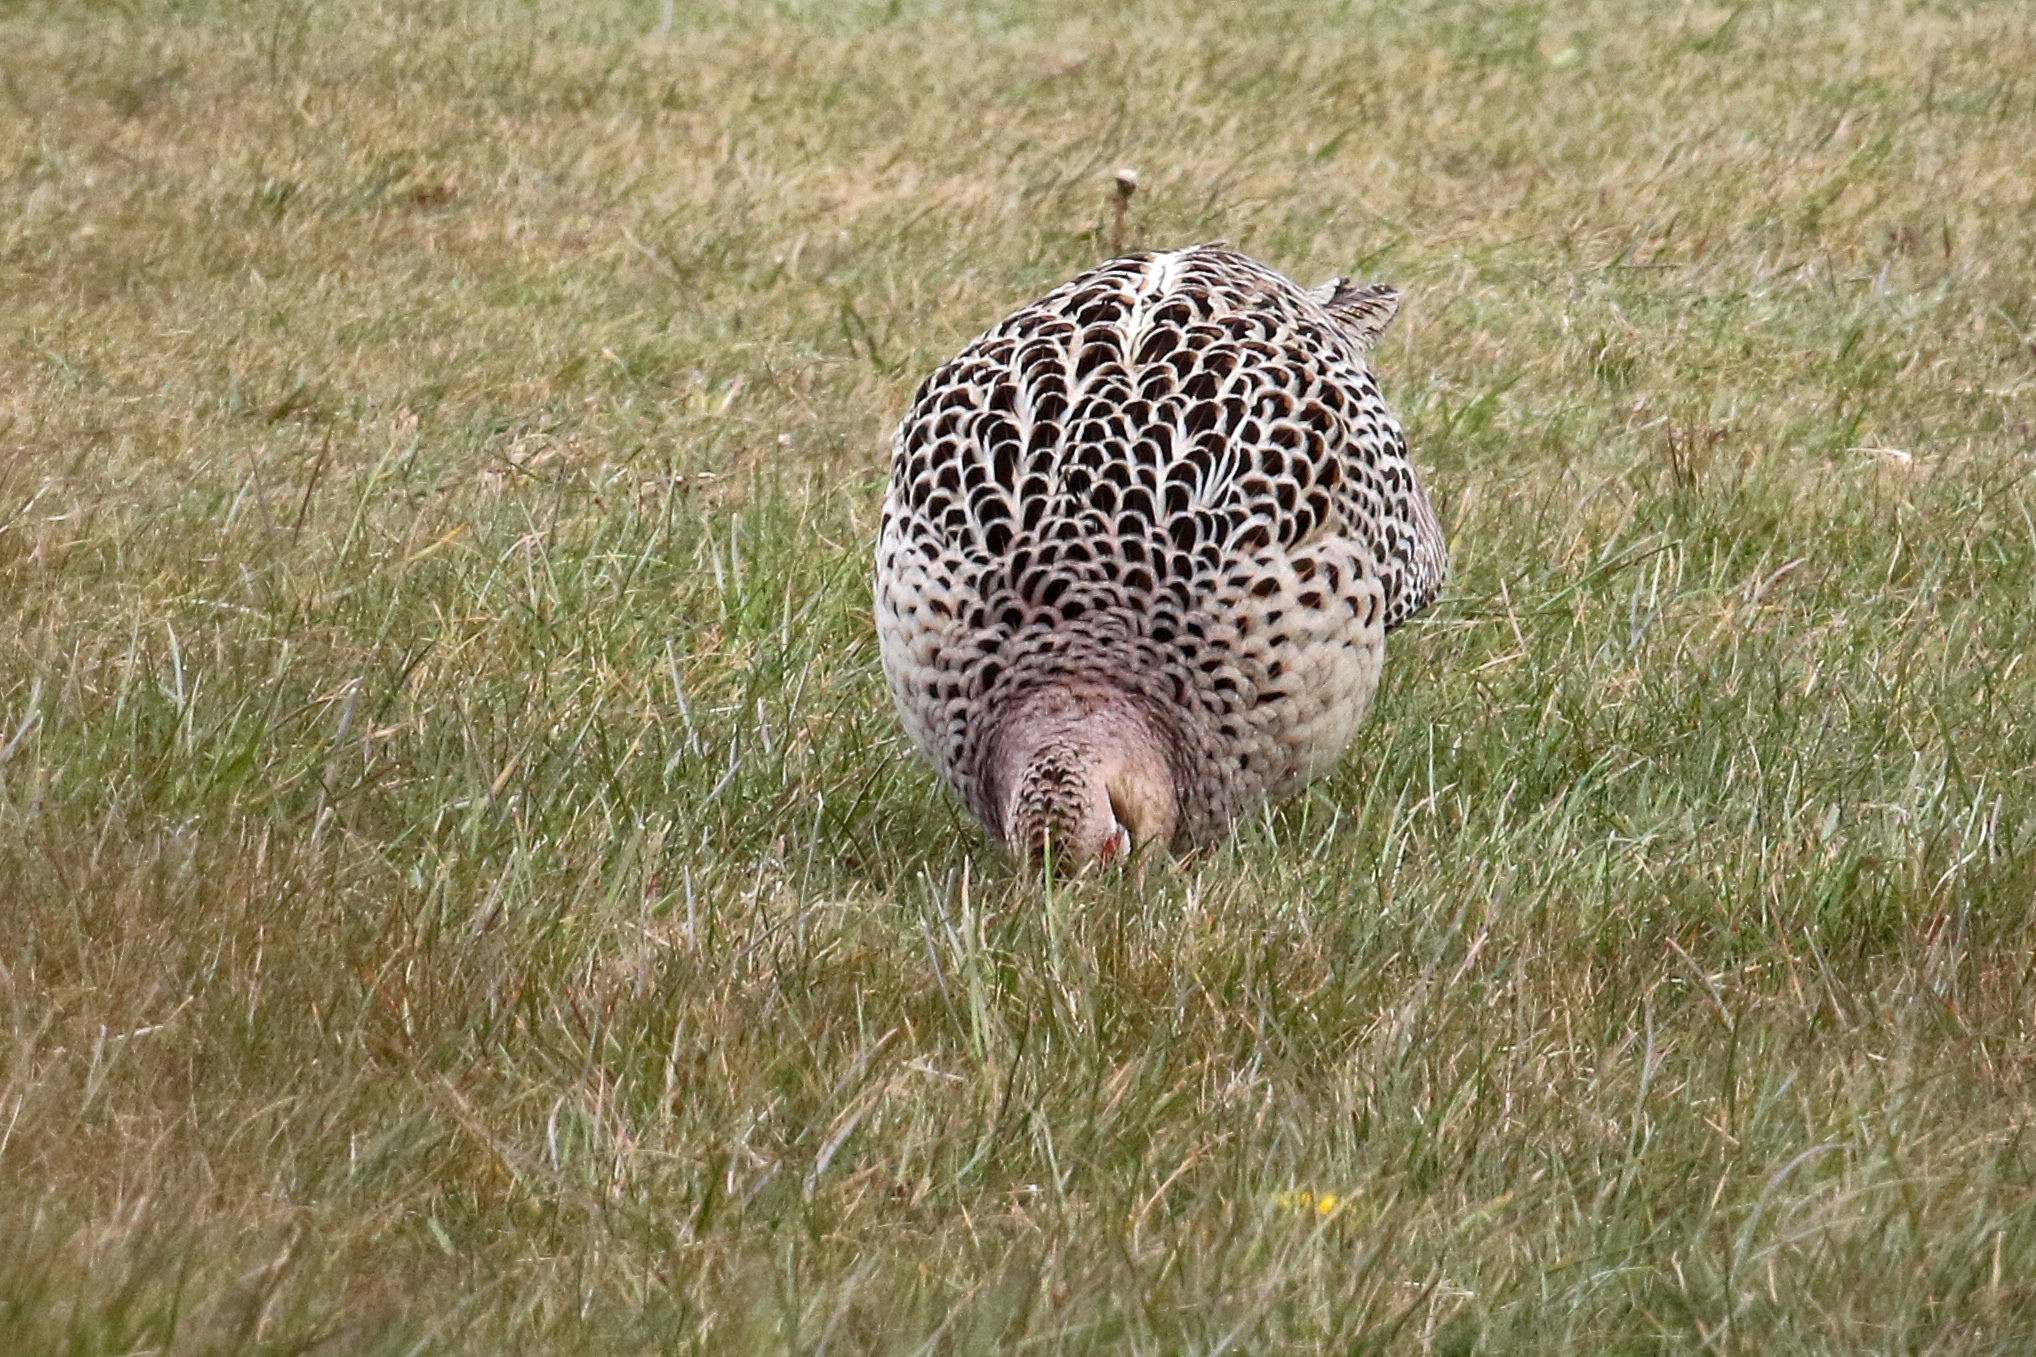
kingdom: Animalia
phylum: Chordata
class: Aves
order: Galliformes
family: Phasianidae
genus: Phasianus
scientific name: Phasianus colchicus
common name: Common pheasant
